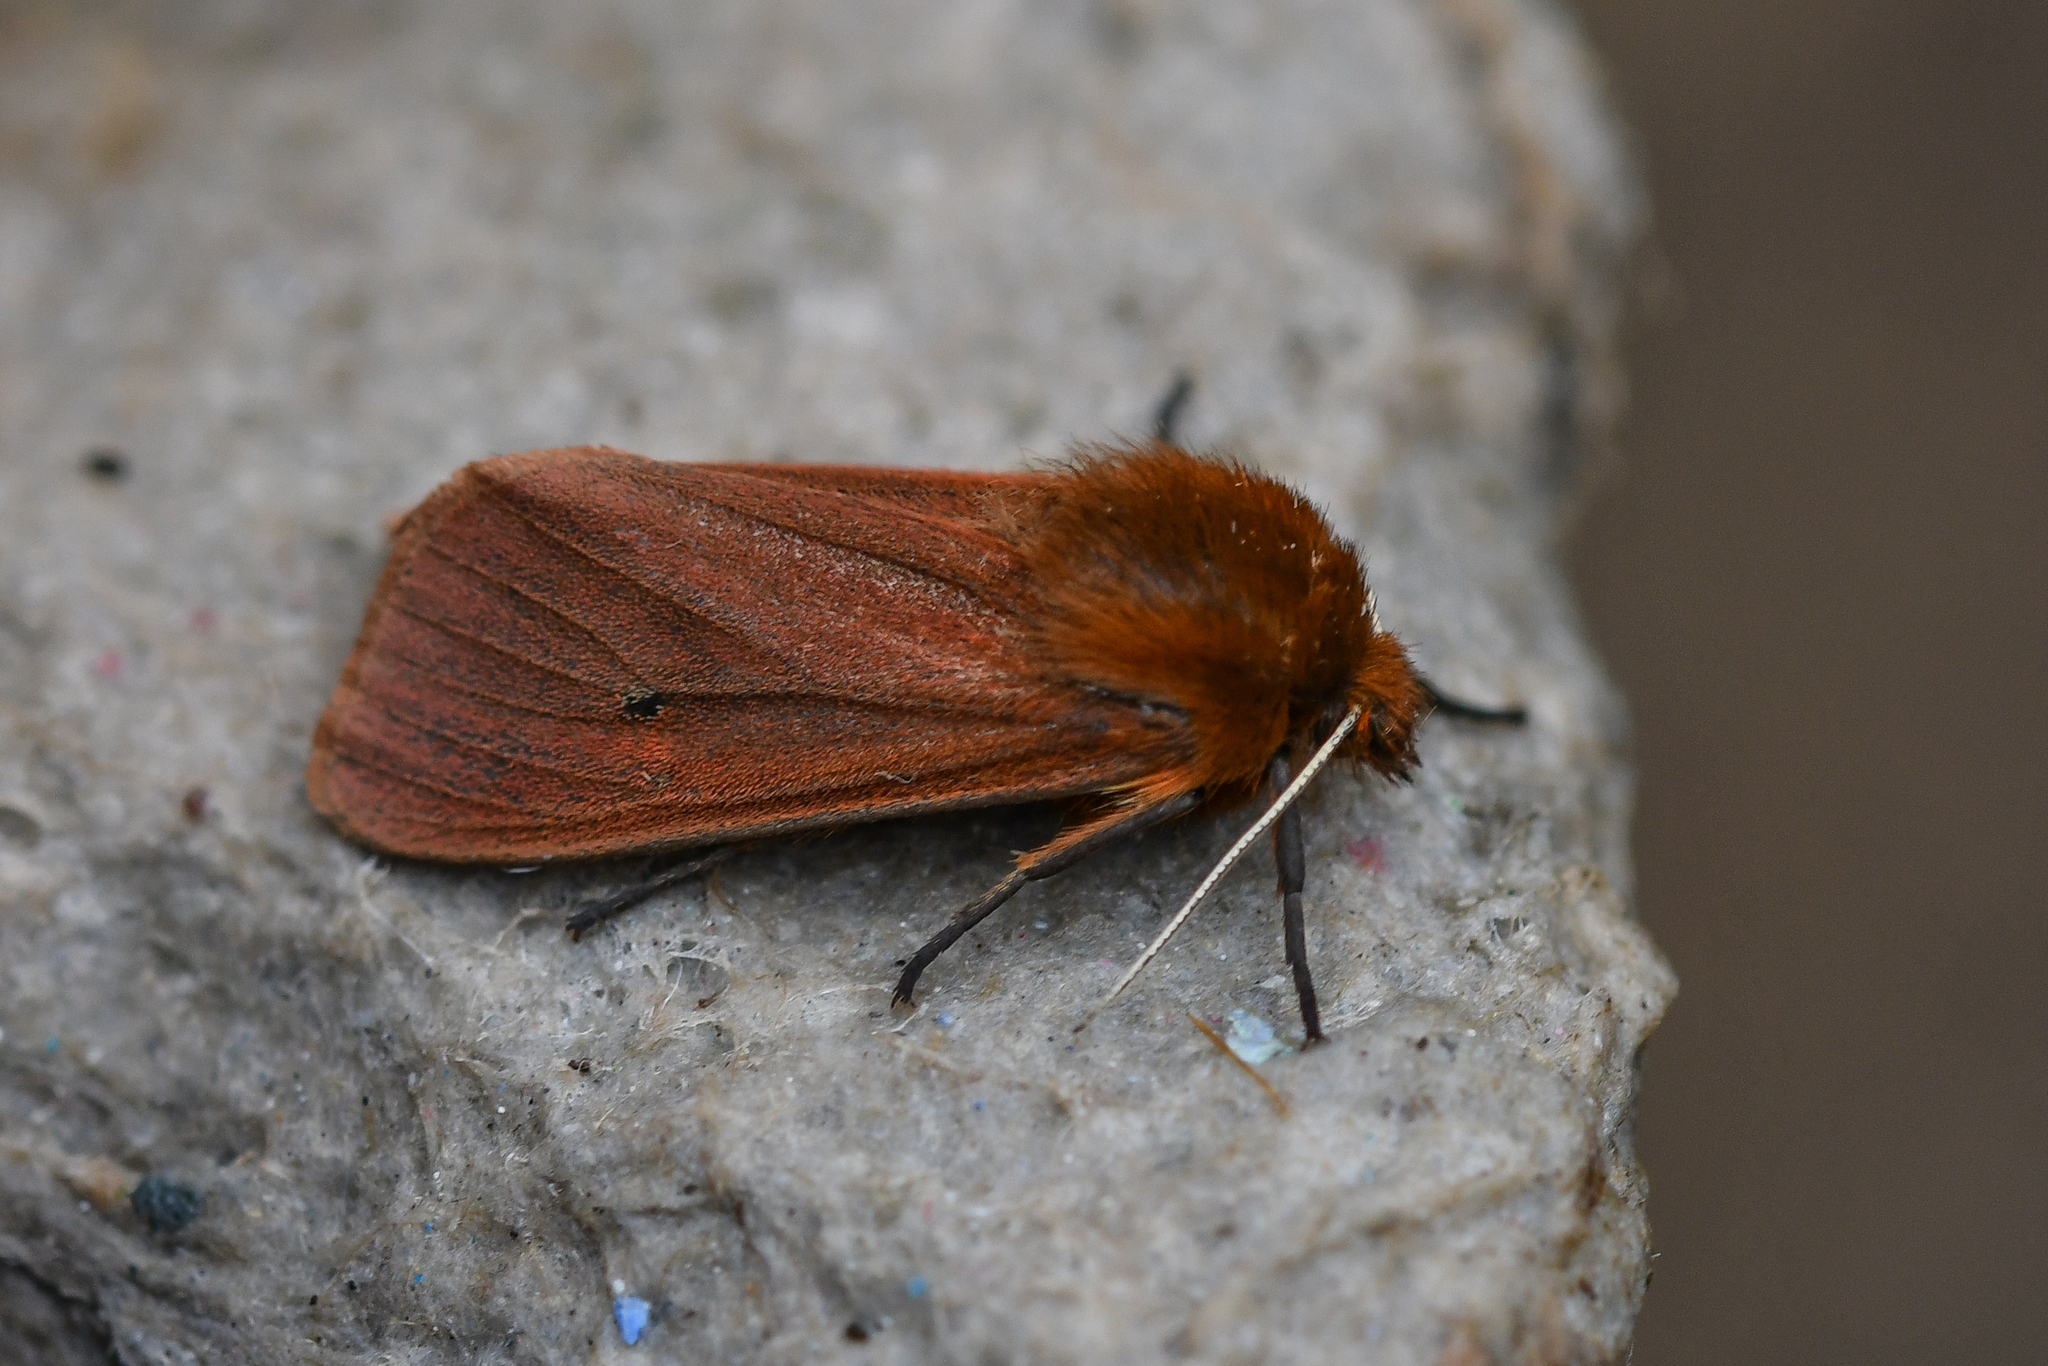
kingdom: Animalia
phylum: Arthropoda
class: Insecta
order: Lepidoptera
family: Erebidae
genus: Phragmatobia
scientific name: Phragmatobia fuliginosa
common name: Ruby tiger
